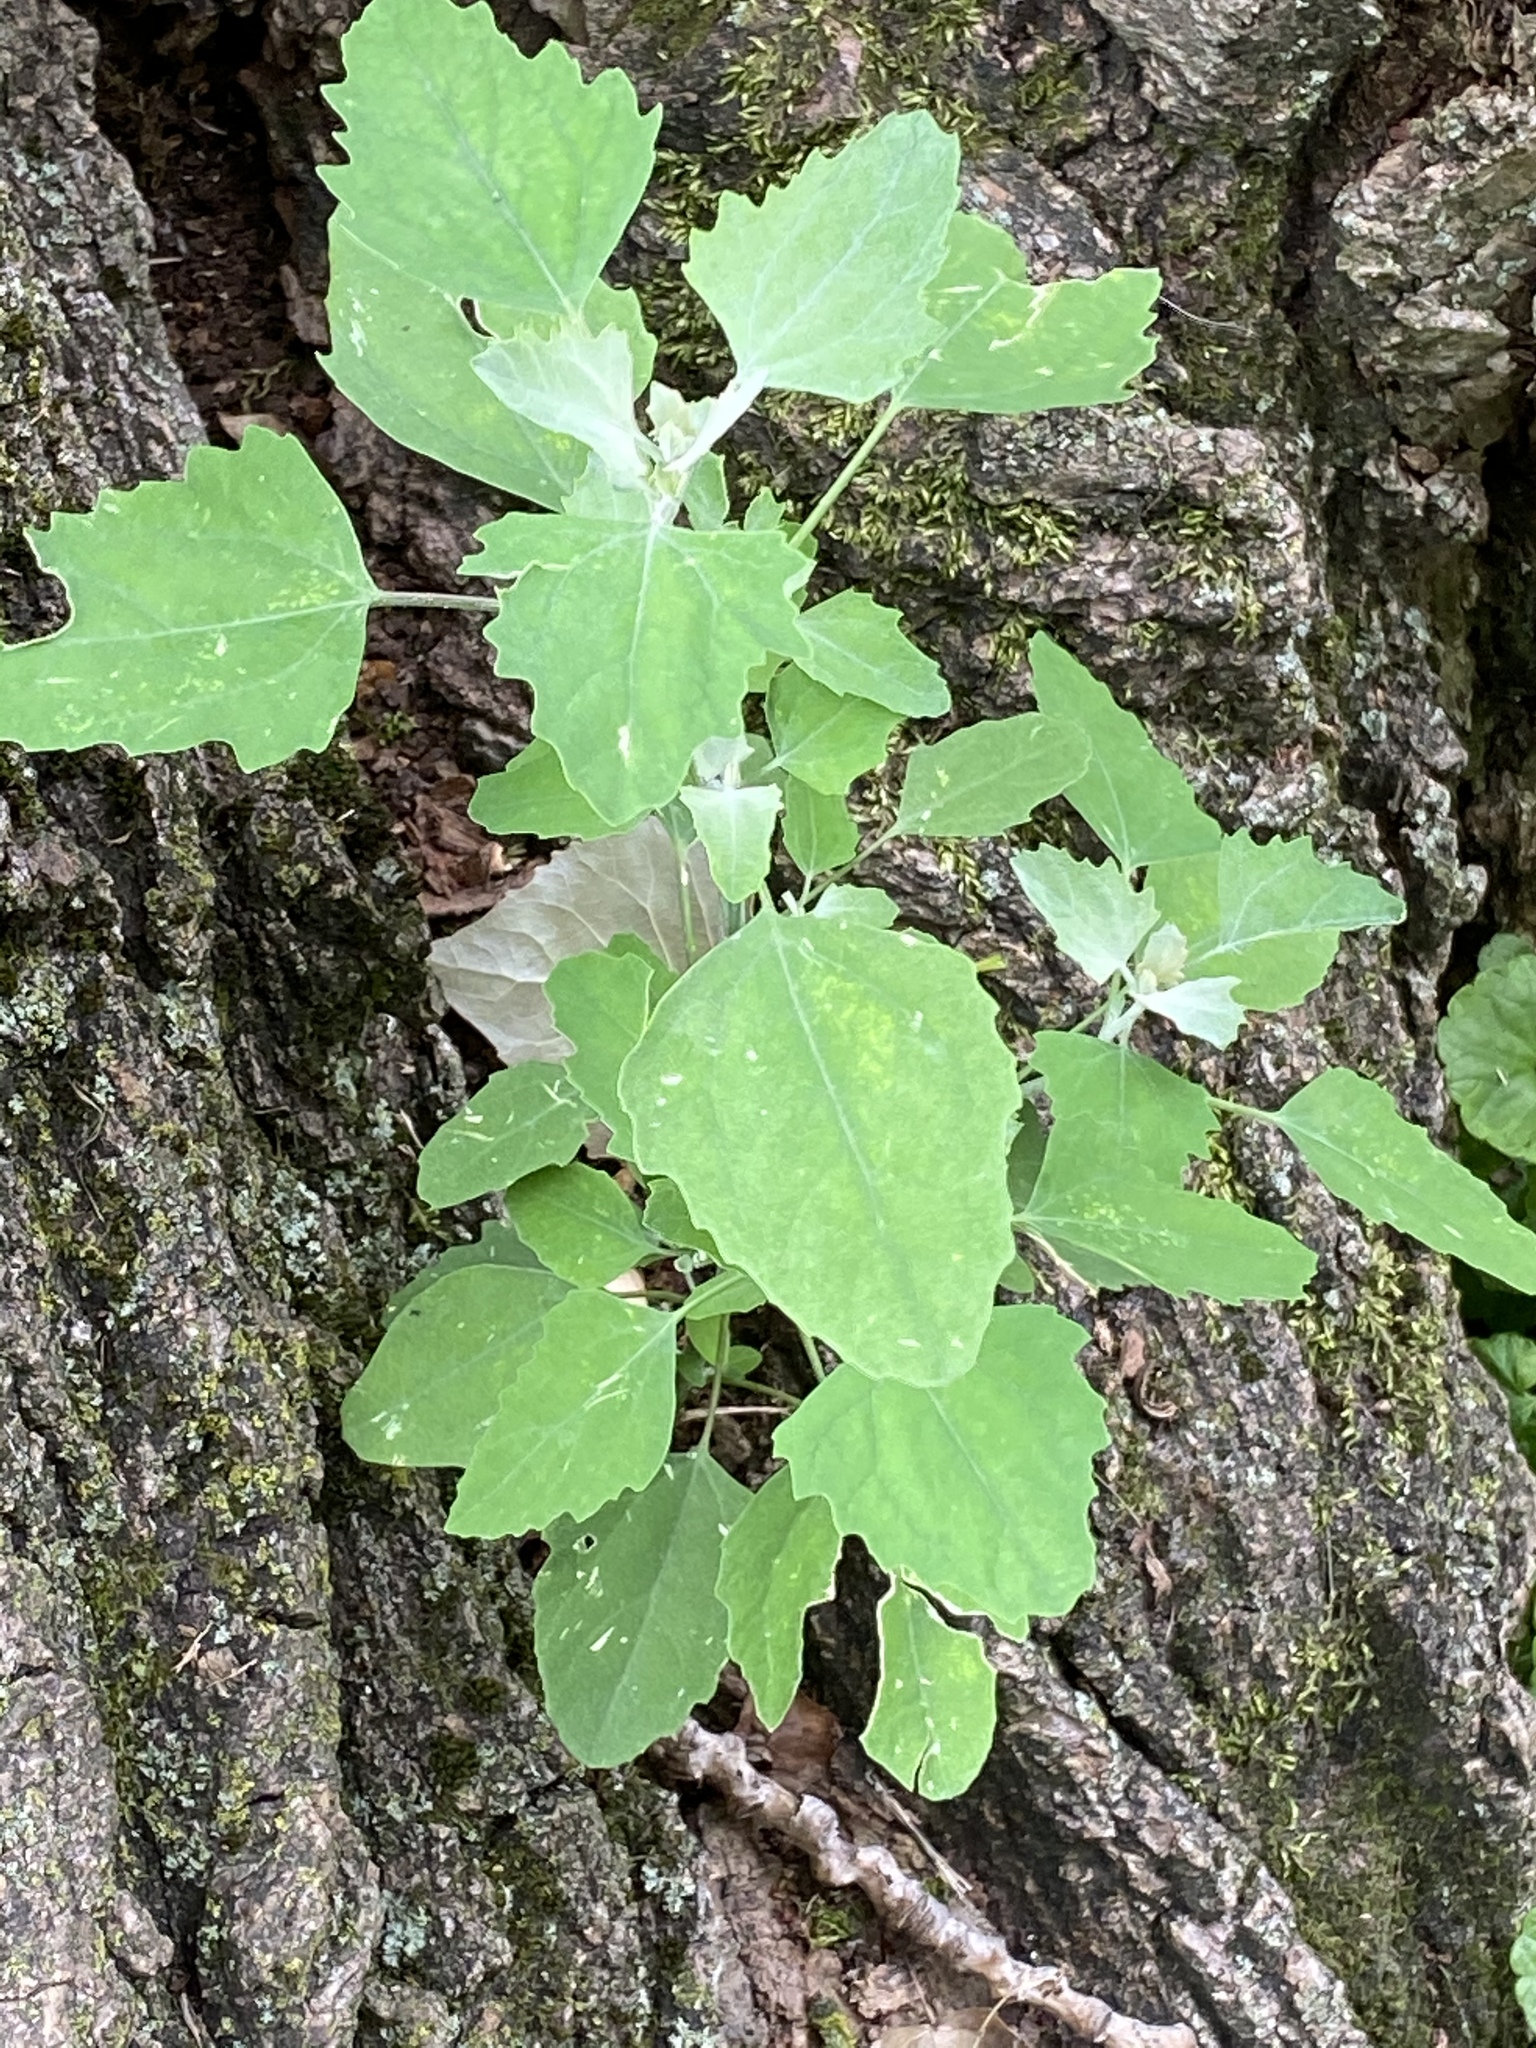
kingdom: Plantae
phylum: Tracheophyta
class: Magnoliopsida
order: Caryophyllales
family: Amaranthaceae
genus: Chenopodium
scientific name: Chenopodium album
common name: Fat-hen
